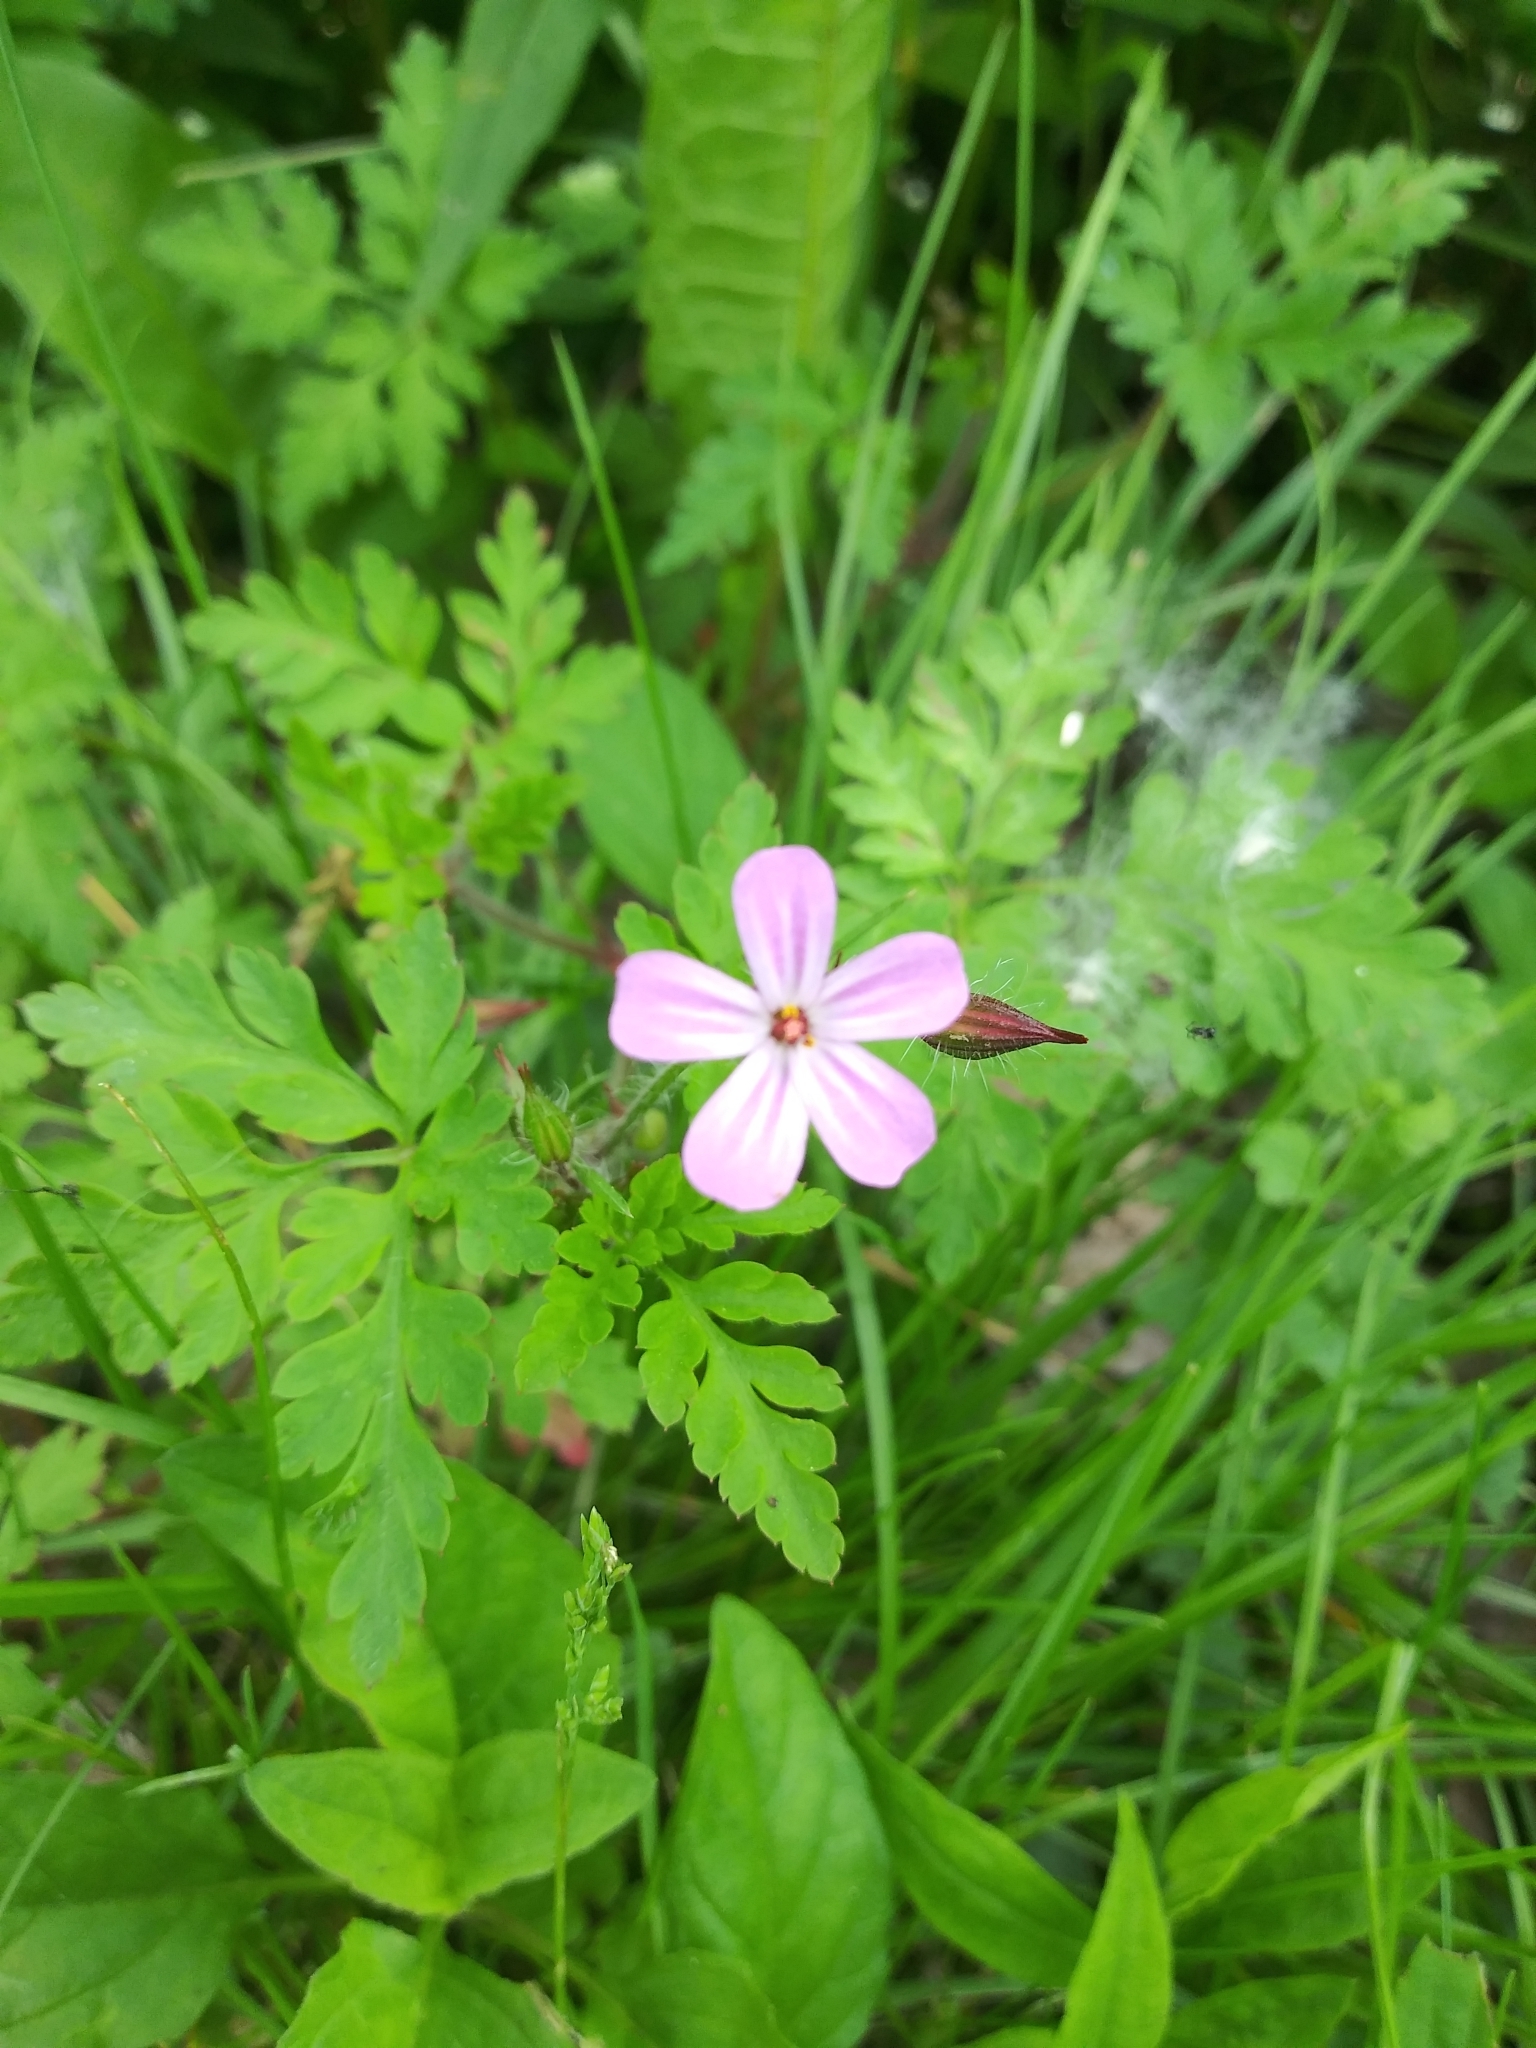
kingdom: Plantae
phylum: Tracheophyta
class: Magnoliopsida
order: Geraniales
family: Geraniaceae
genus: Geranium
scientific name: Geranium robertianum
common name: Herb-robert
